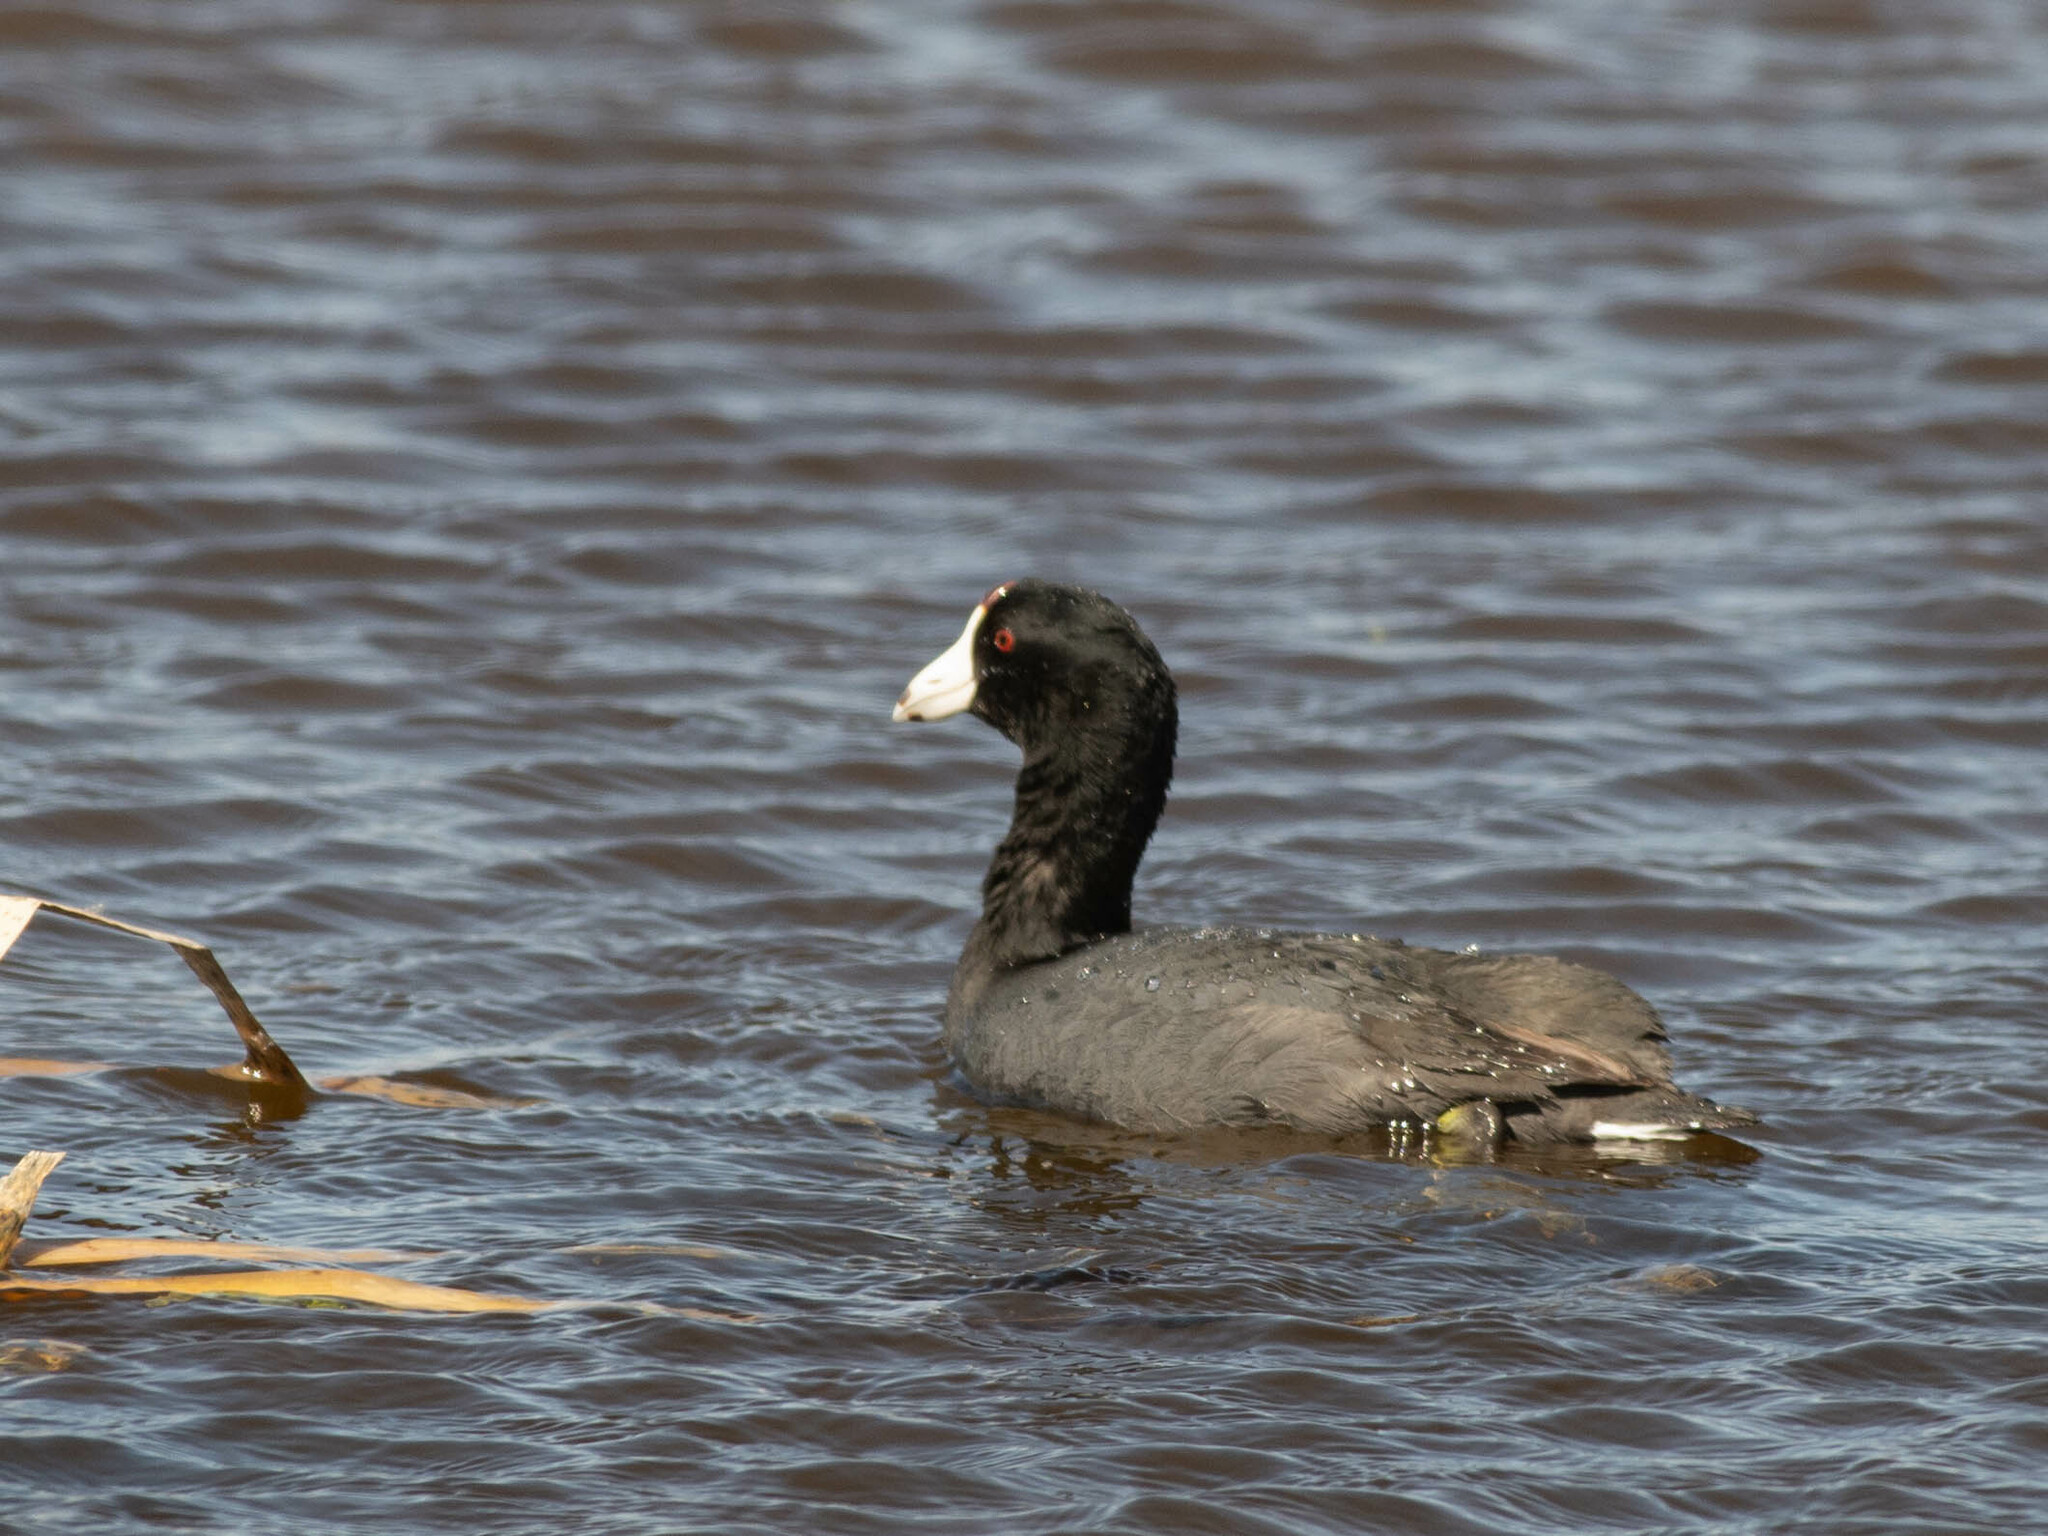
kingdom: Animalia
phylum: Chordata
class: Aves
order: Gruiformes
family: Rallidae
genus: Fulica
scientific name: Fulica americana
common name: American coot
